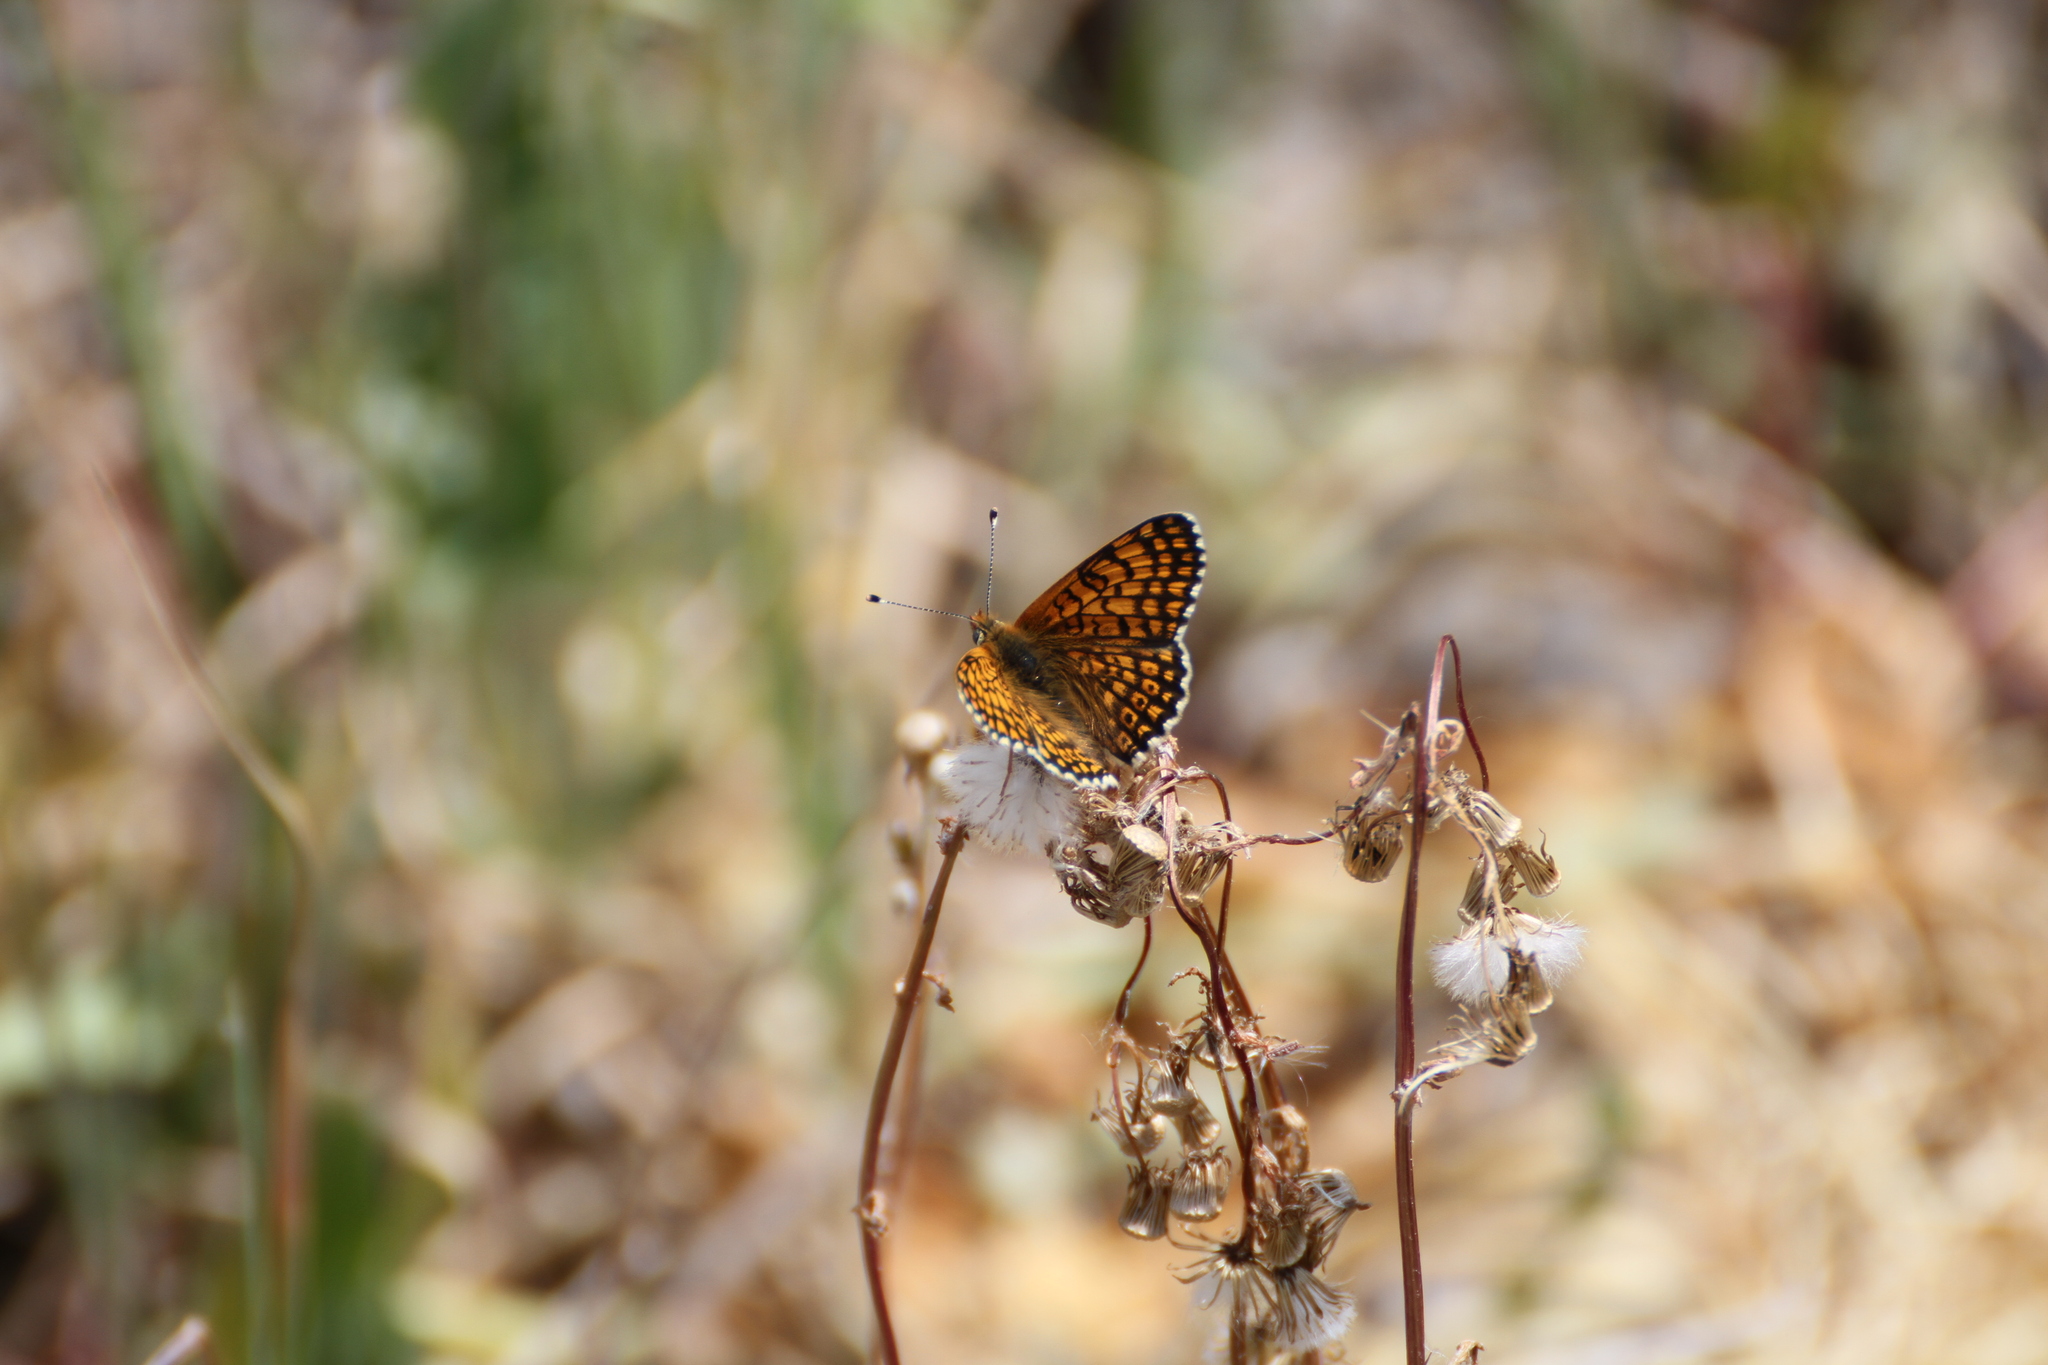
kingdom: Animalia
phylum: Arthropoda
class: Insecta
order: Lepidoptera
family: Nymphalidae
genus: Melitaea
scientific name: Melitaea cinxia
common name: Glanville fritillary
